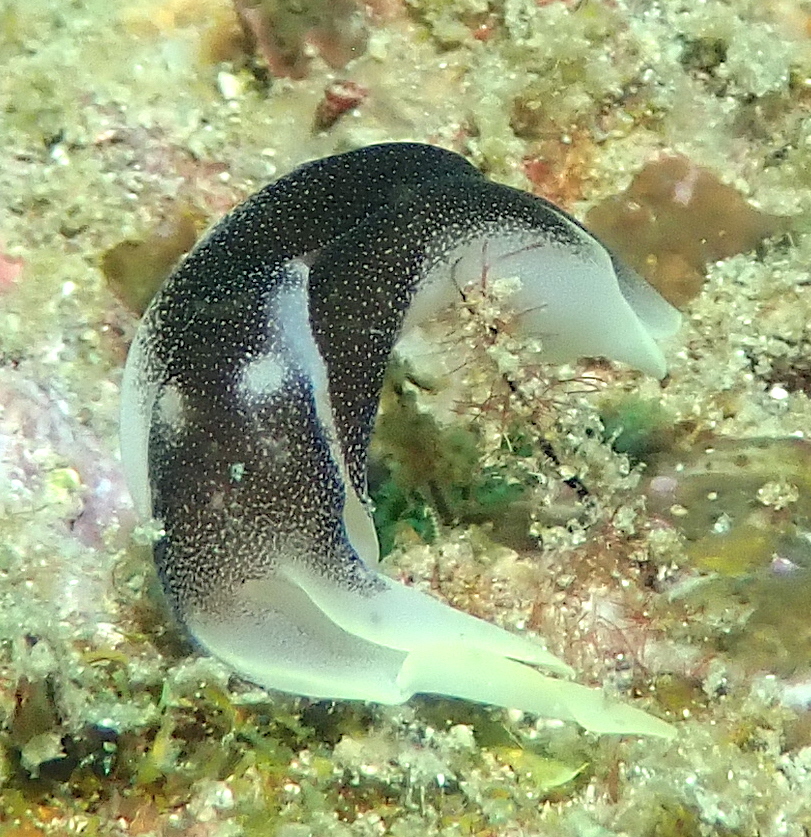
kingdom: Animalia
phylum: Mollusca
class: Gastropoda
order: Cephalaspidea
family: Aglajidae
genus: Chelidonura
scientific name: Chelidonura amoena
